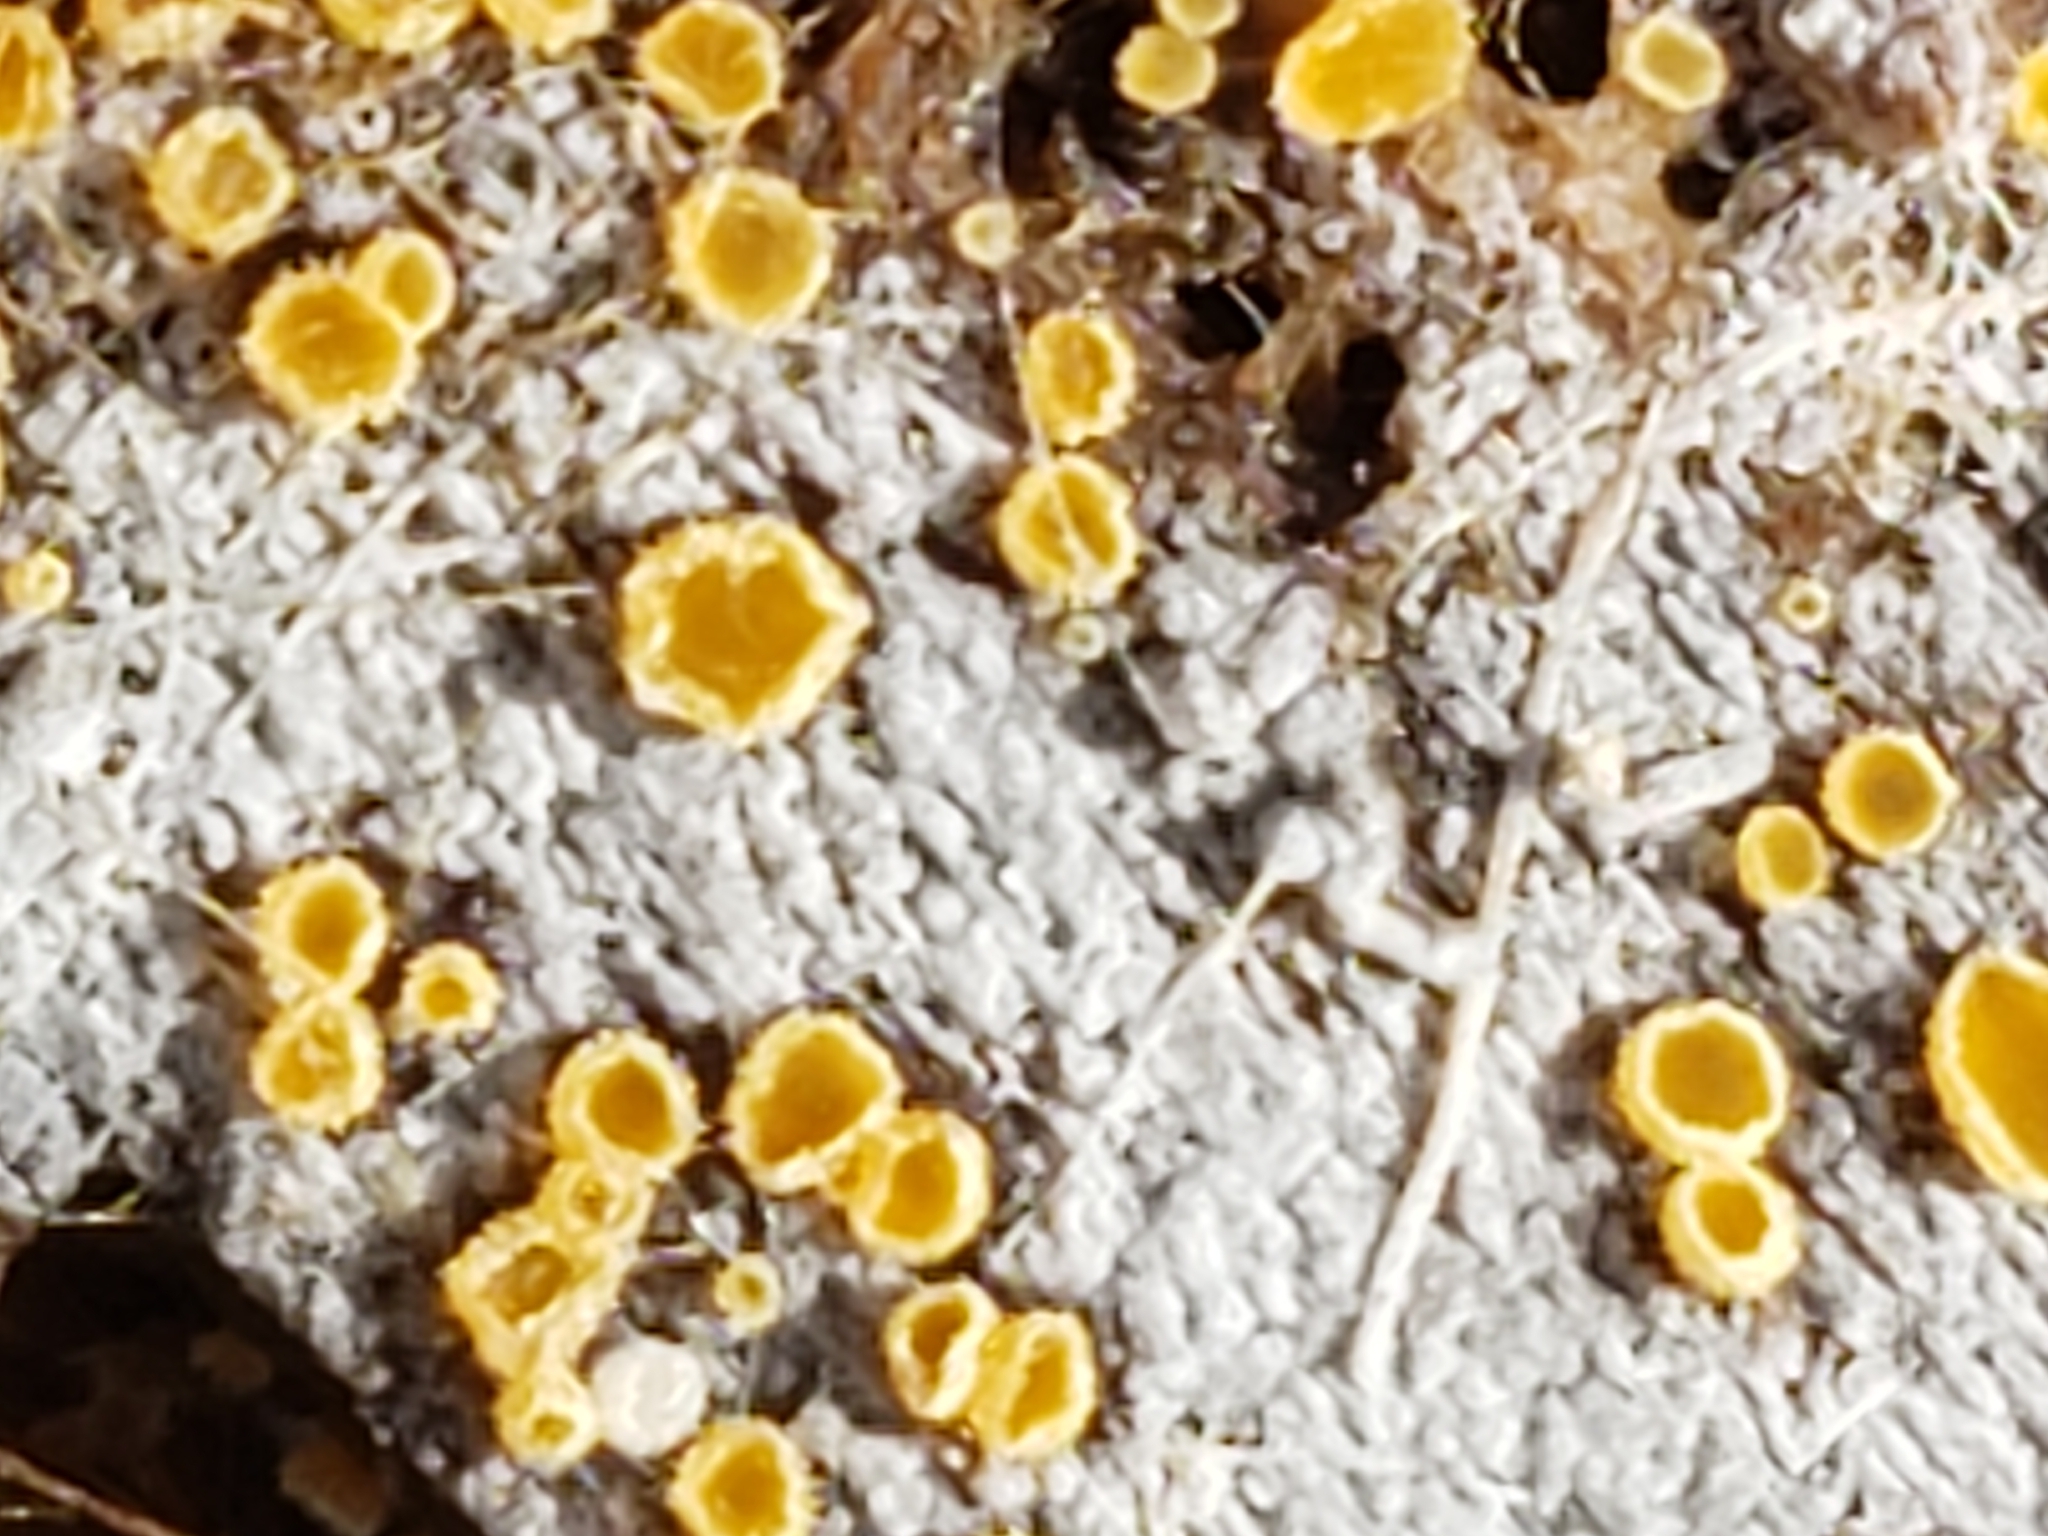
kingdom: Fungi
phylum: Ascomycota
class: Leotiomycetes
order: Helotiales
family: Arachnopezizaceae
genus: Arachnopeziza
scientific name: Arachnopeziza trabinelloides
